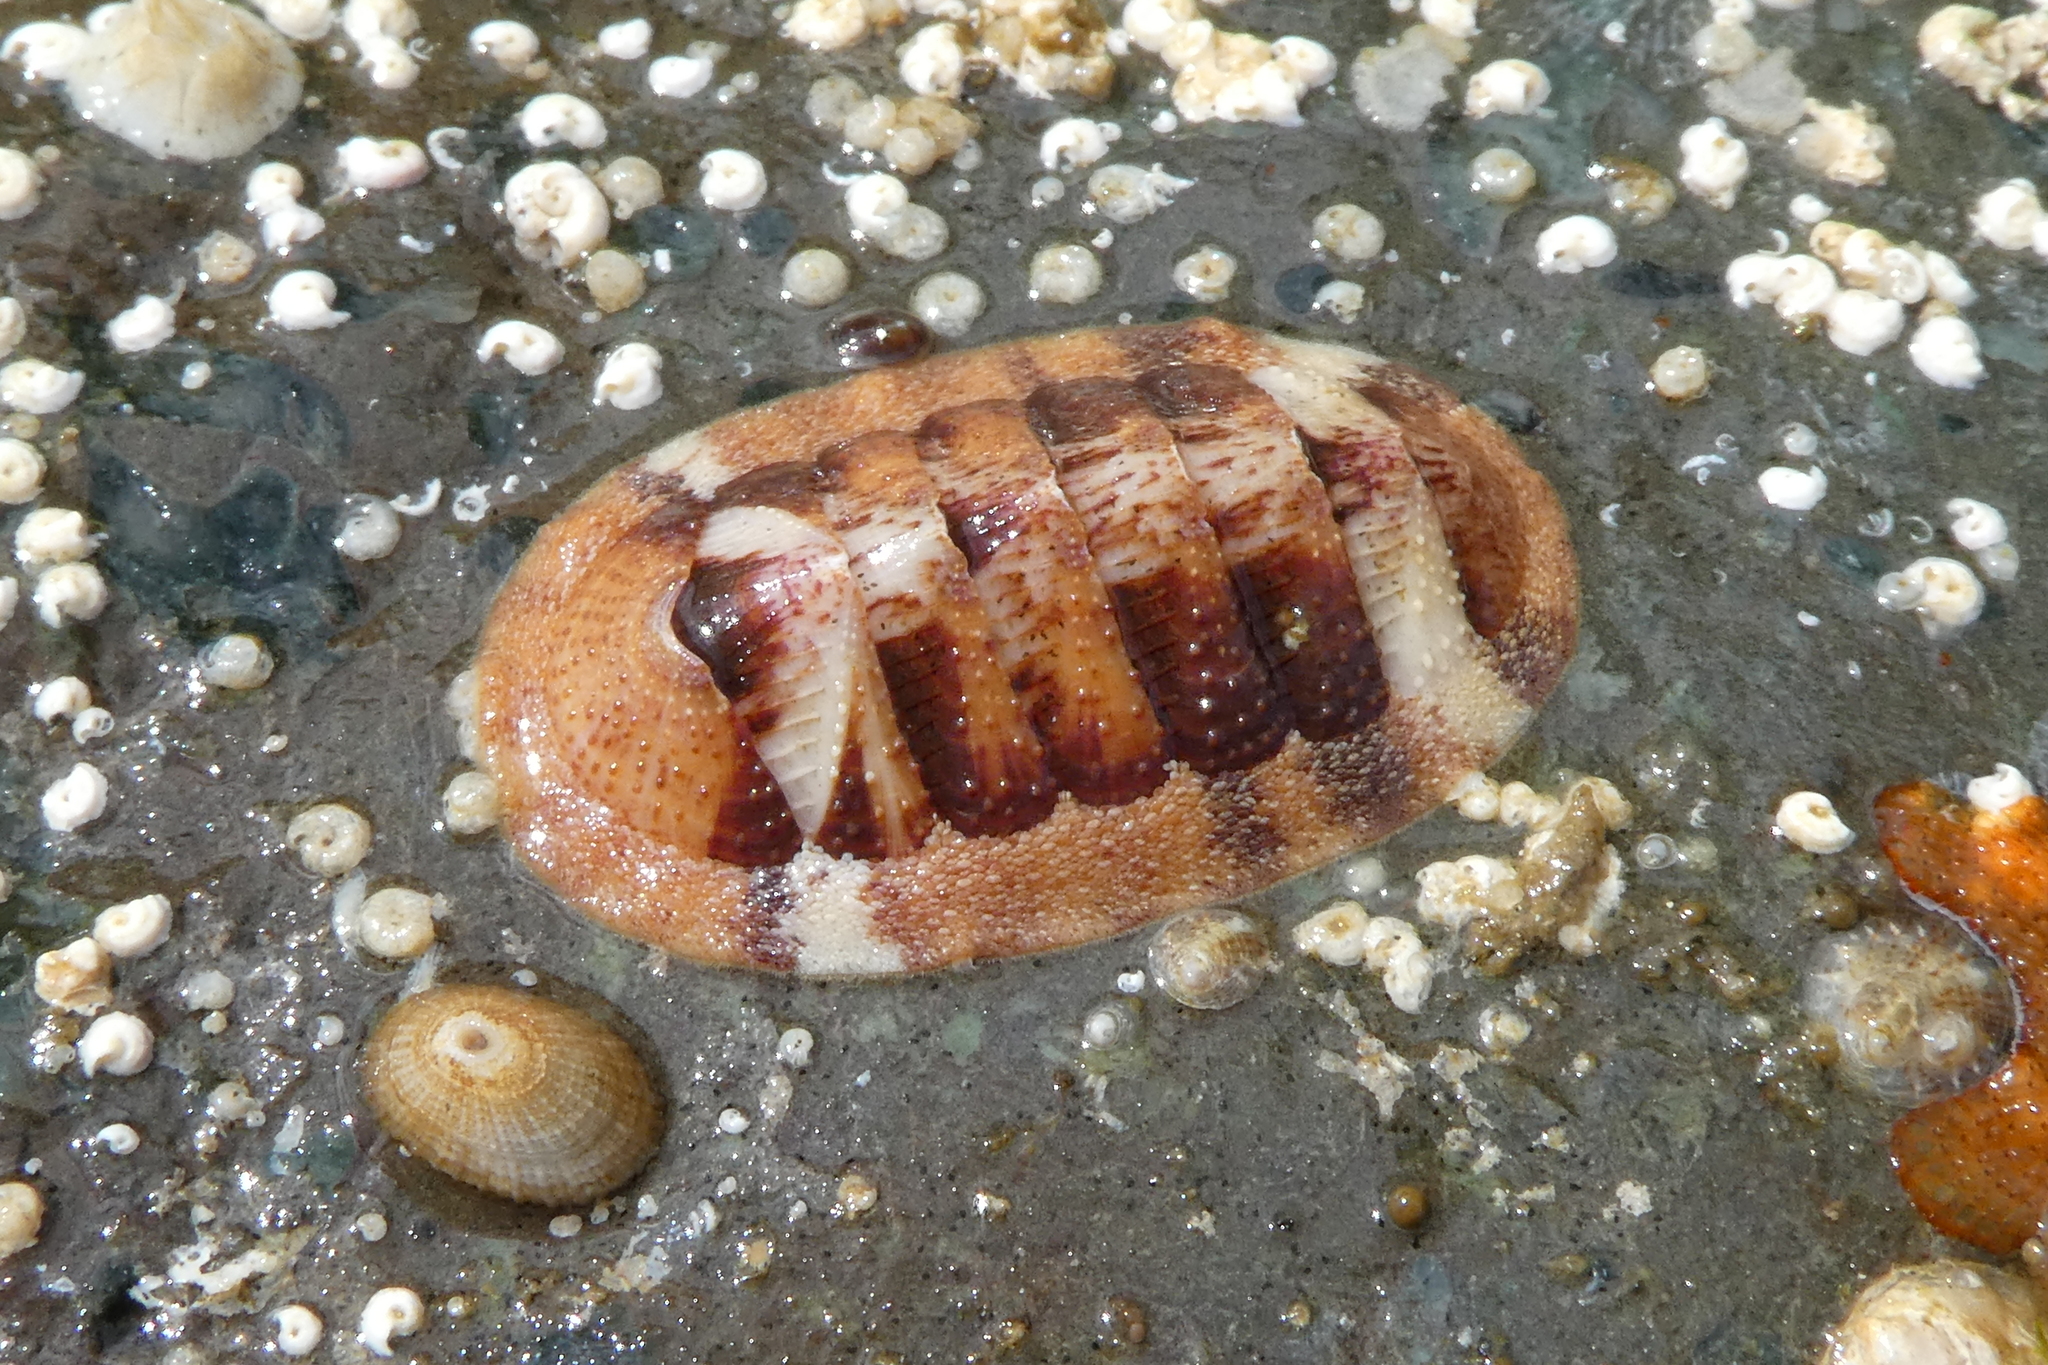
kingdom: Animalia
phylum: Mollusca
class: Polyplacophora
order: Chitonida
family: Ischnochitonidae
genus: Lepidozona
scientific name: Lepidozona mertensii
